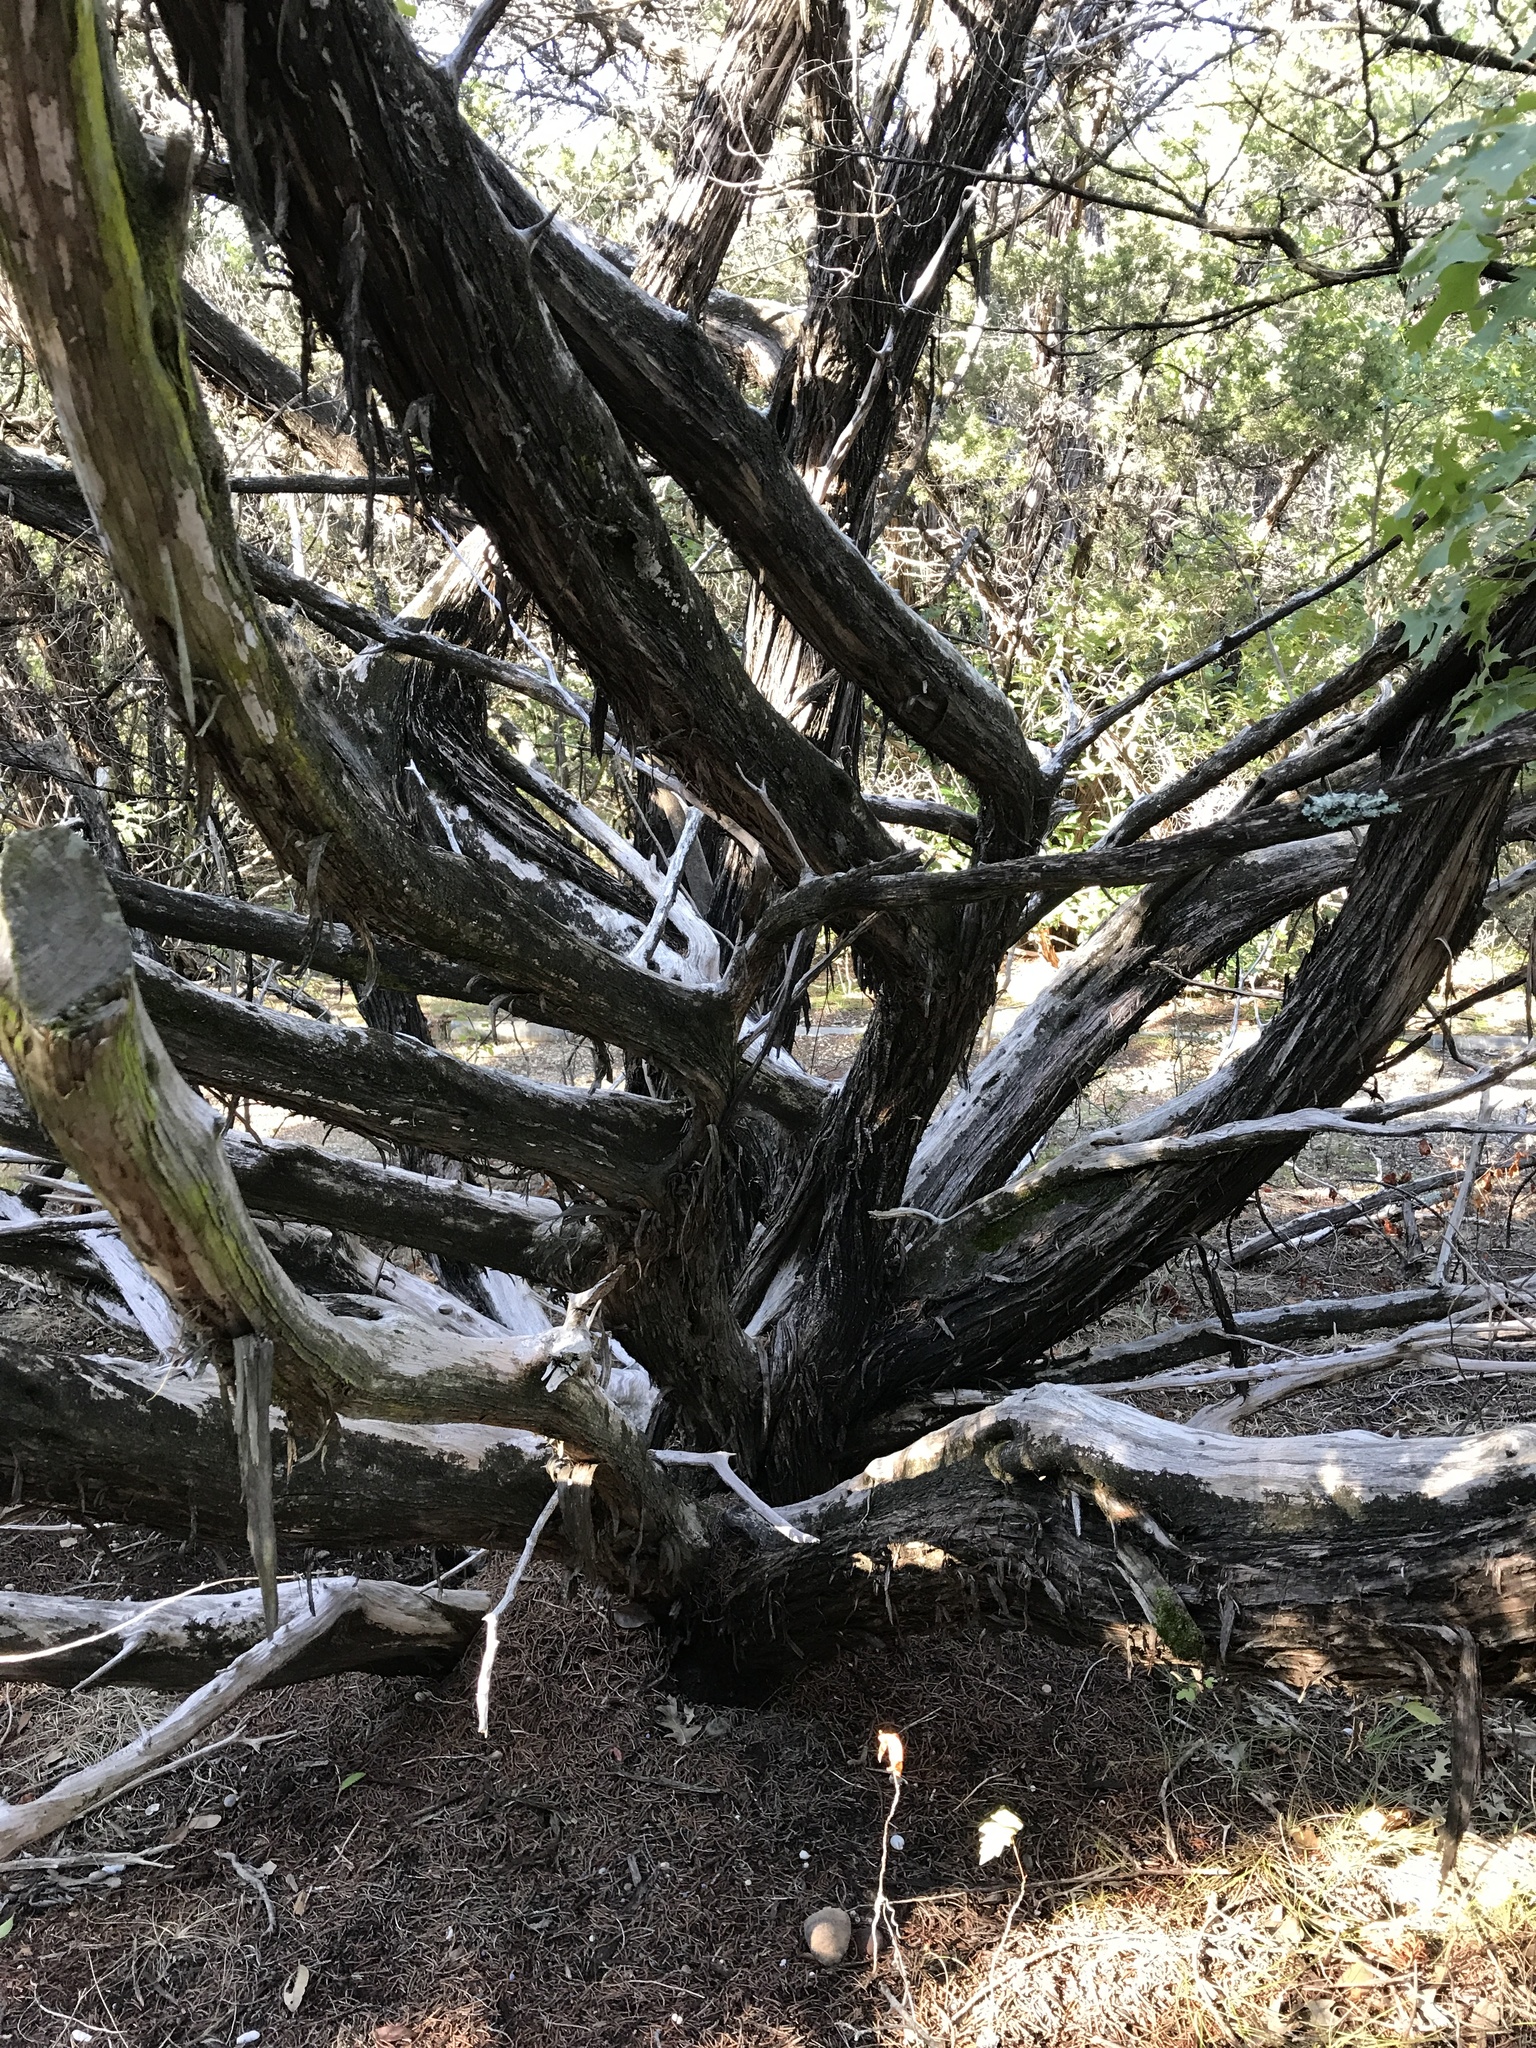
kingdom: Plantae
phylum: Tracheophyta
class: Pinopsida
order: Pinales
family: Cupressaceae
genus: Juniperus
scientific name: Juniperus ashei
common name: Mexican juniper
